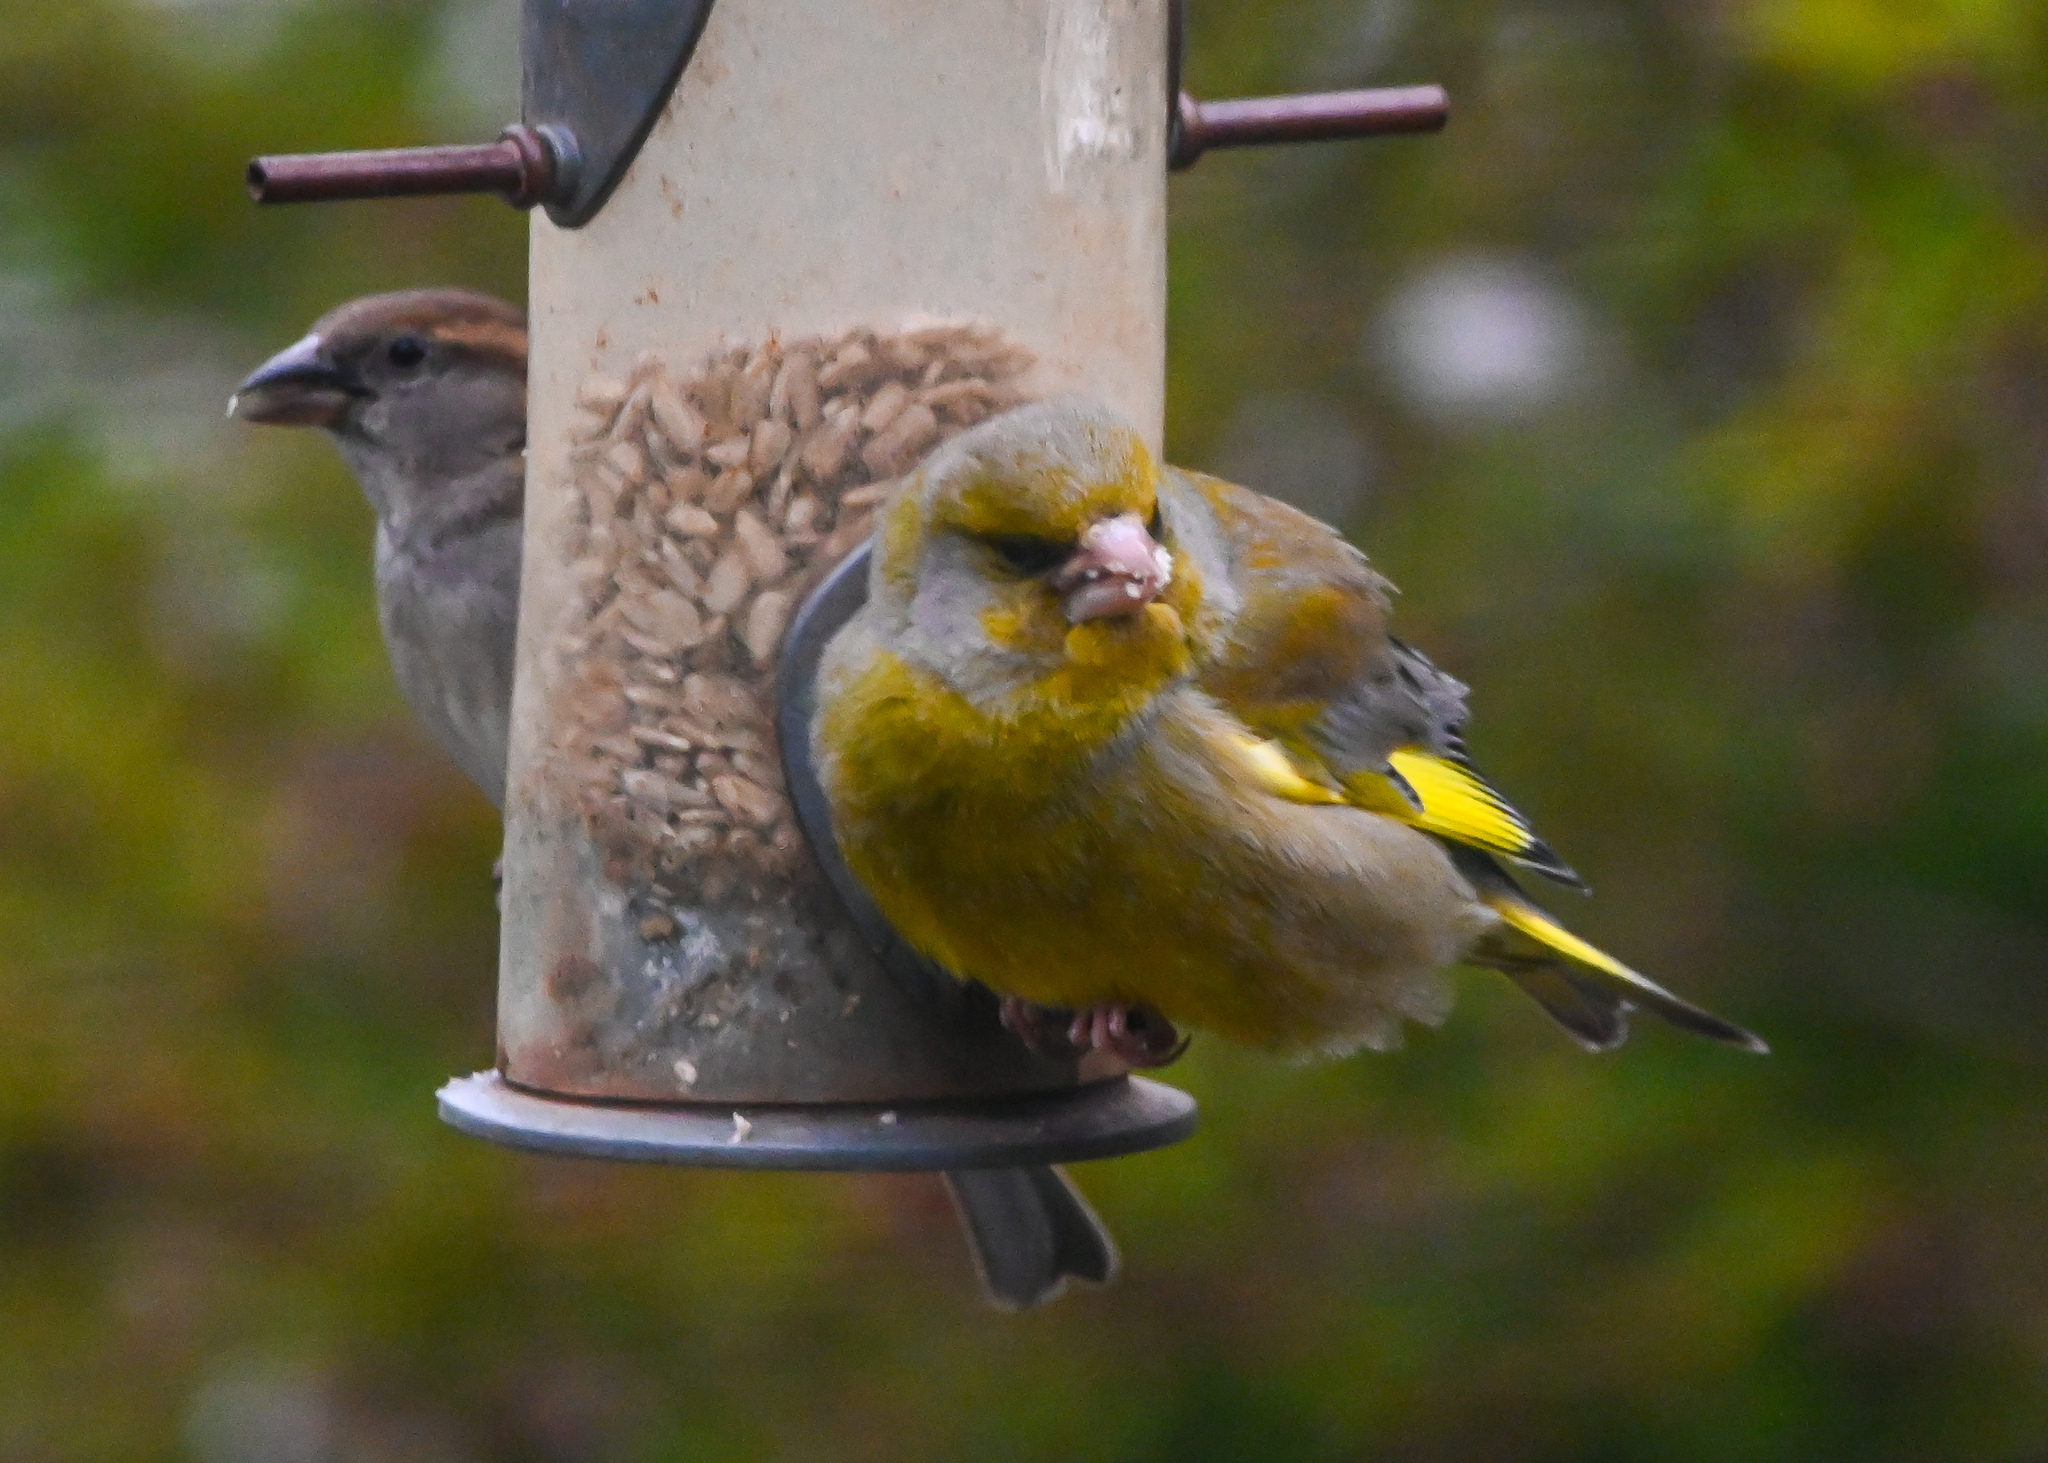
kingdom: Plantae
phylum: Tracheophyta
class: Liliopsida
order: Poales
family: Poaceae
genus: Chloris
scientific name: Chloris chloris
